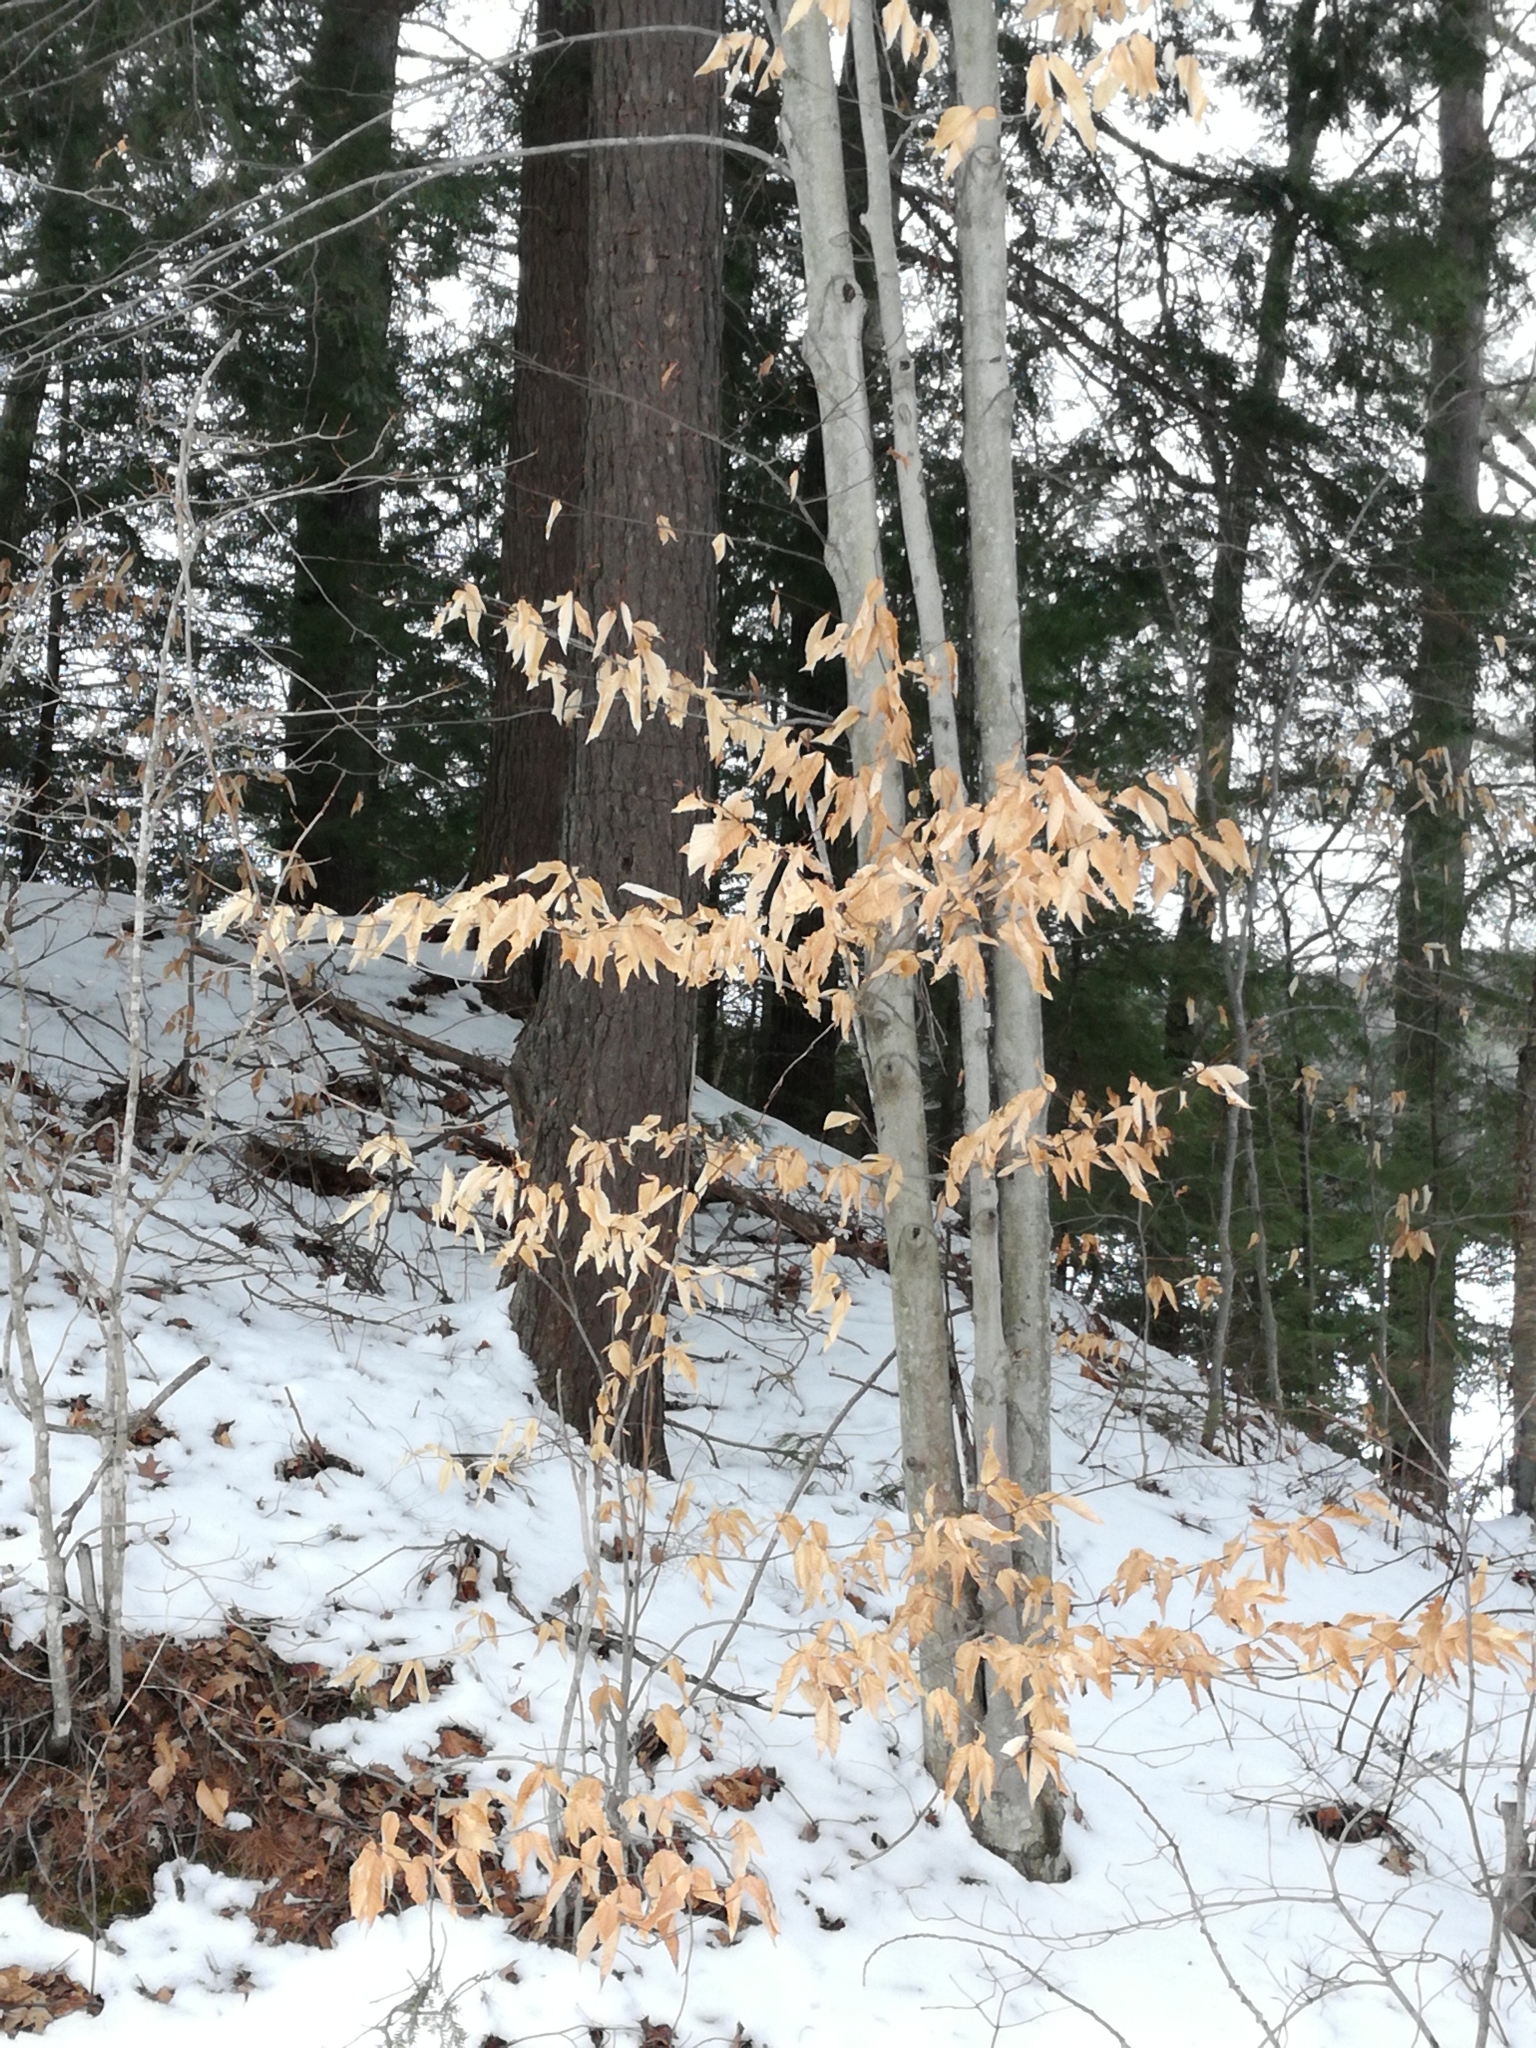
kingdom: Plantae
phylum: Tracheophyta
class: Magnoliopsida
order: Fagales
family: Fagaceae
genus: Fagus
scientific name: Fagus grandifolia
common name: American beech
